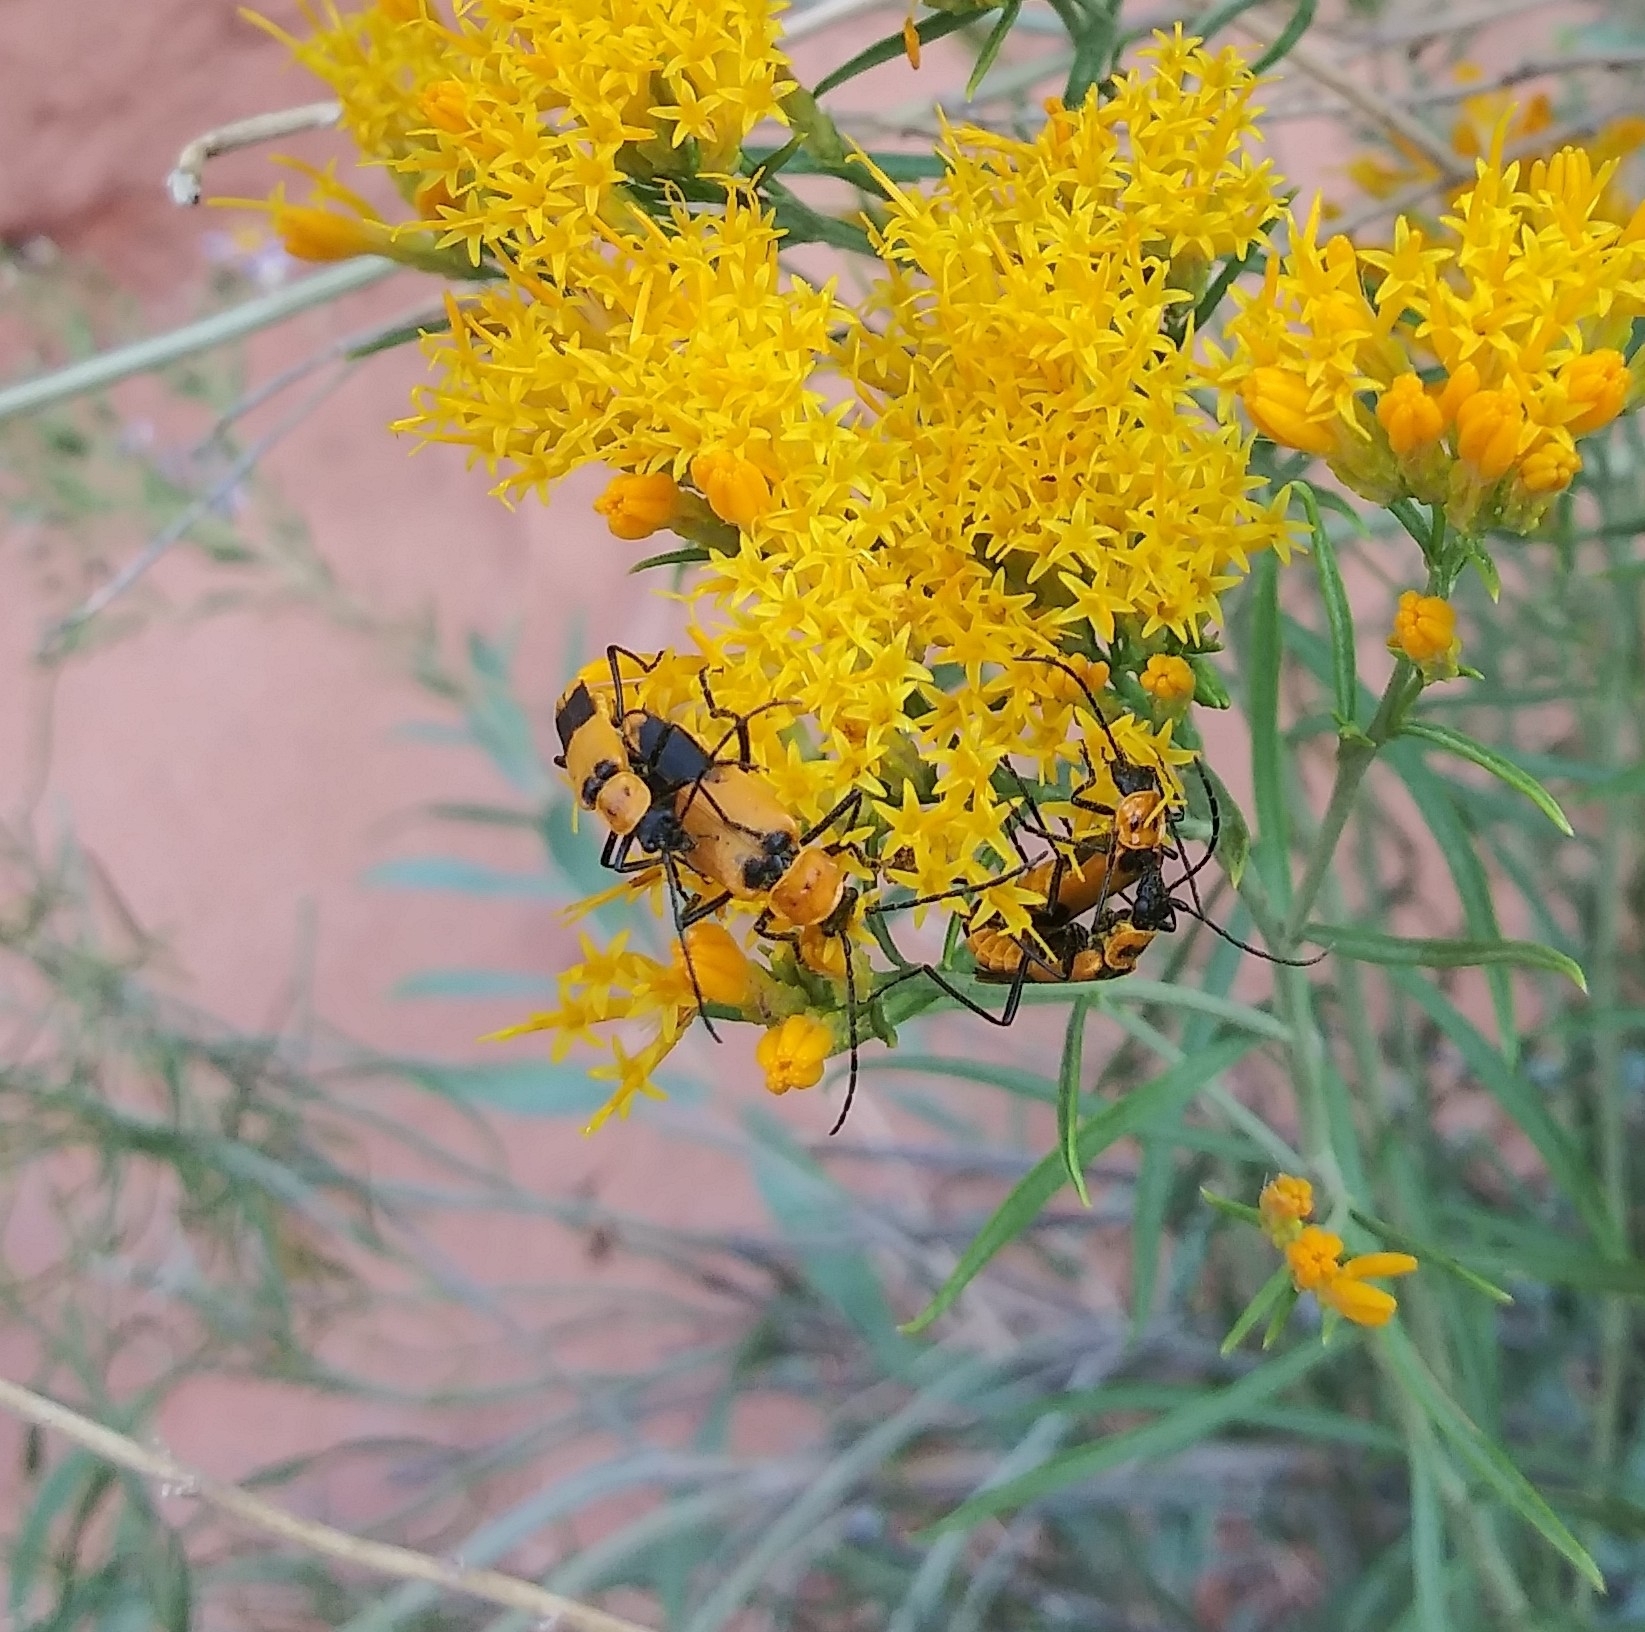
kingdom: Animalia
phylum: Arthropoda
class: Insecta
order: Coleoptera
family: Cantharidae
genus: Chauliognathus
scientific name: Chauliognathus fasciatus
